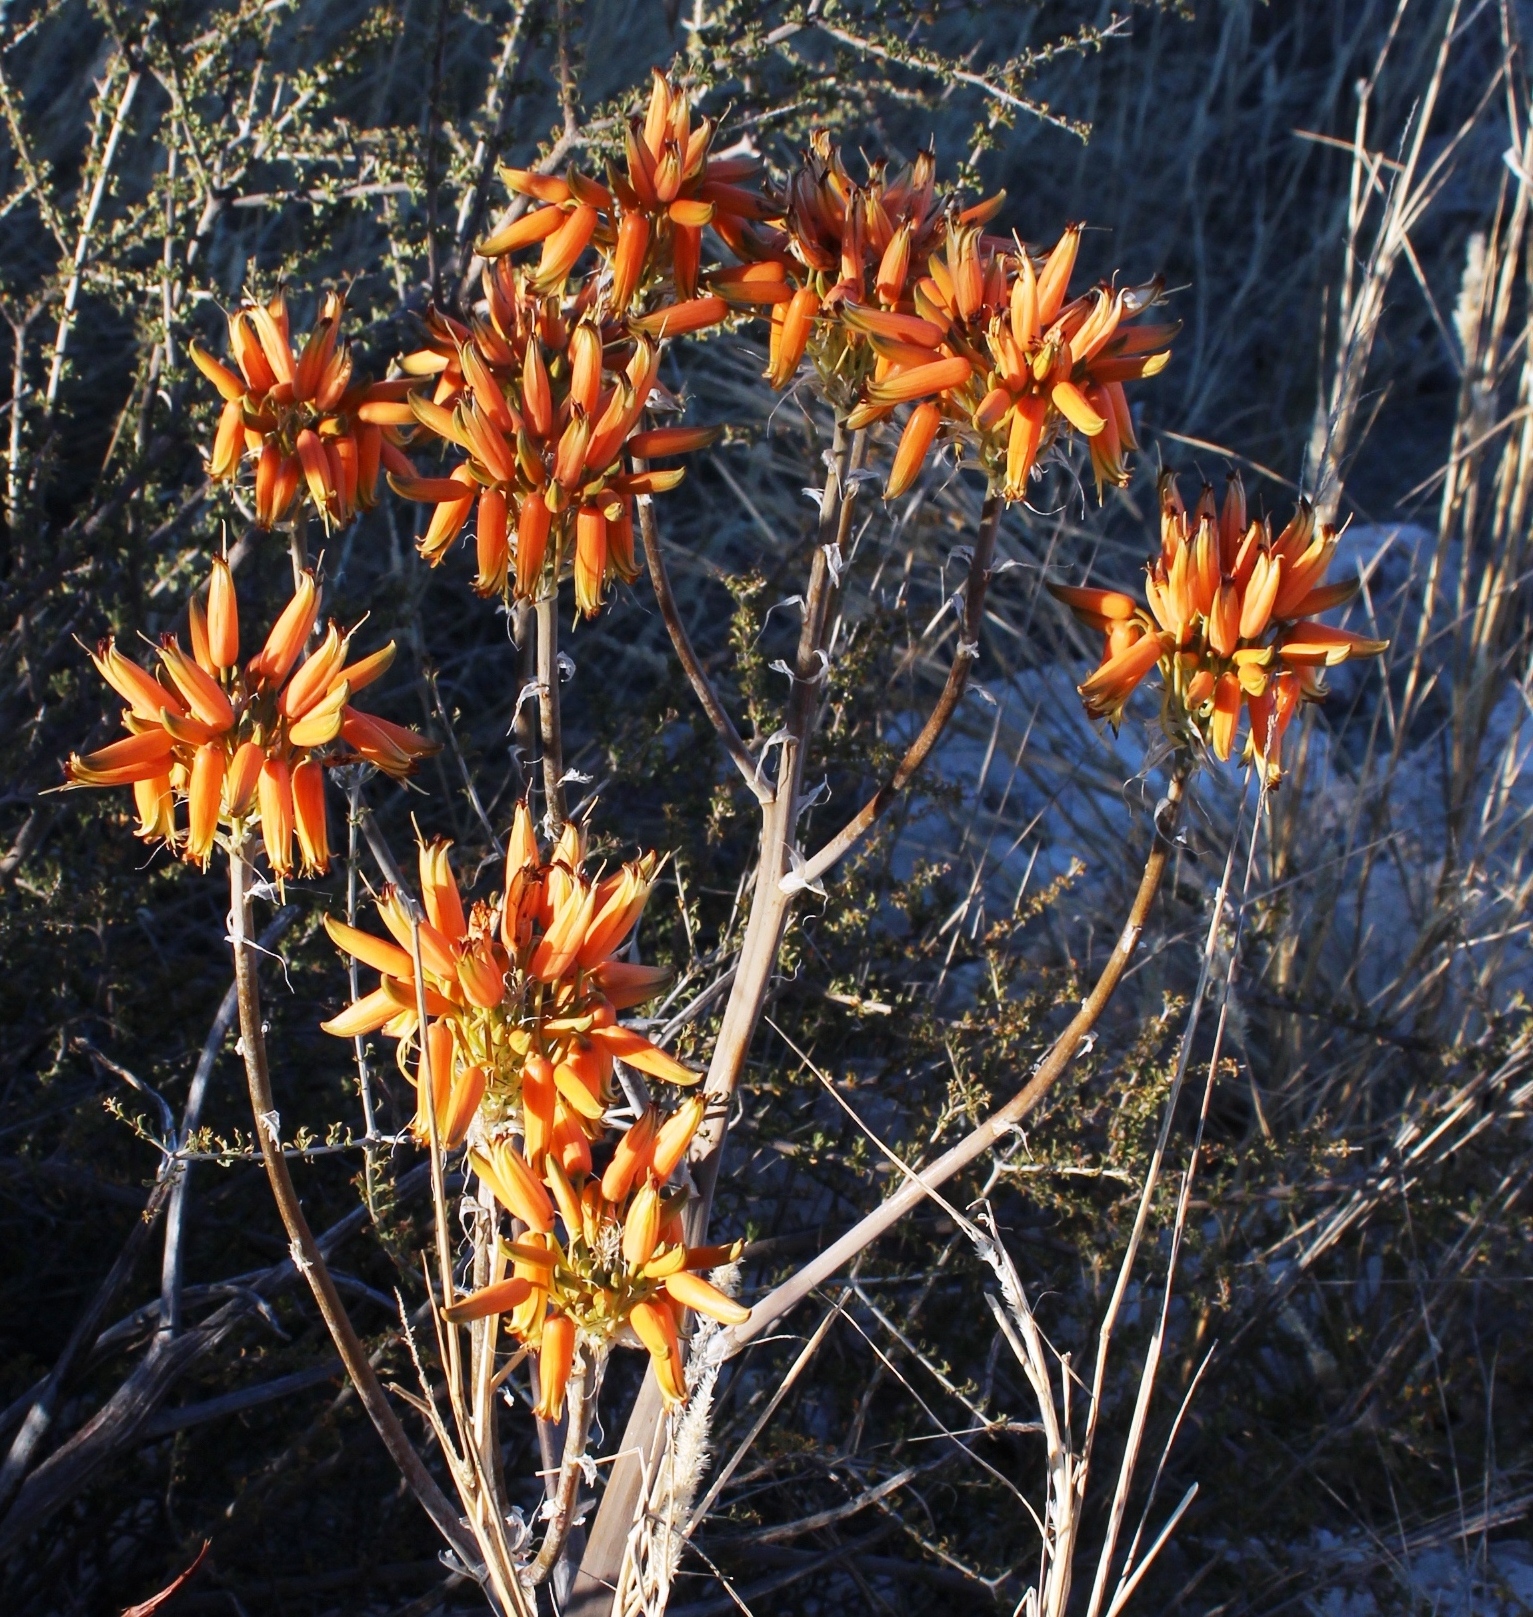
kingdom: Plantae
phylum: Tracheophyta
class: Liliopsida
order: Asparagales
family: Asphodelaceae
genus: Aloe
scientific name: Aloe hereroensis
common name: Herero aloe
